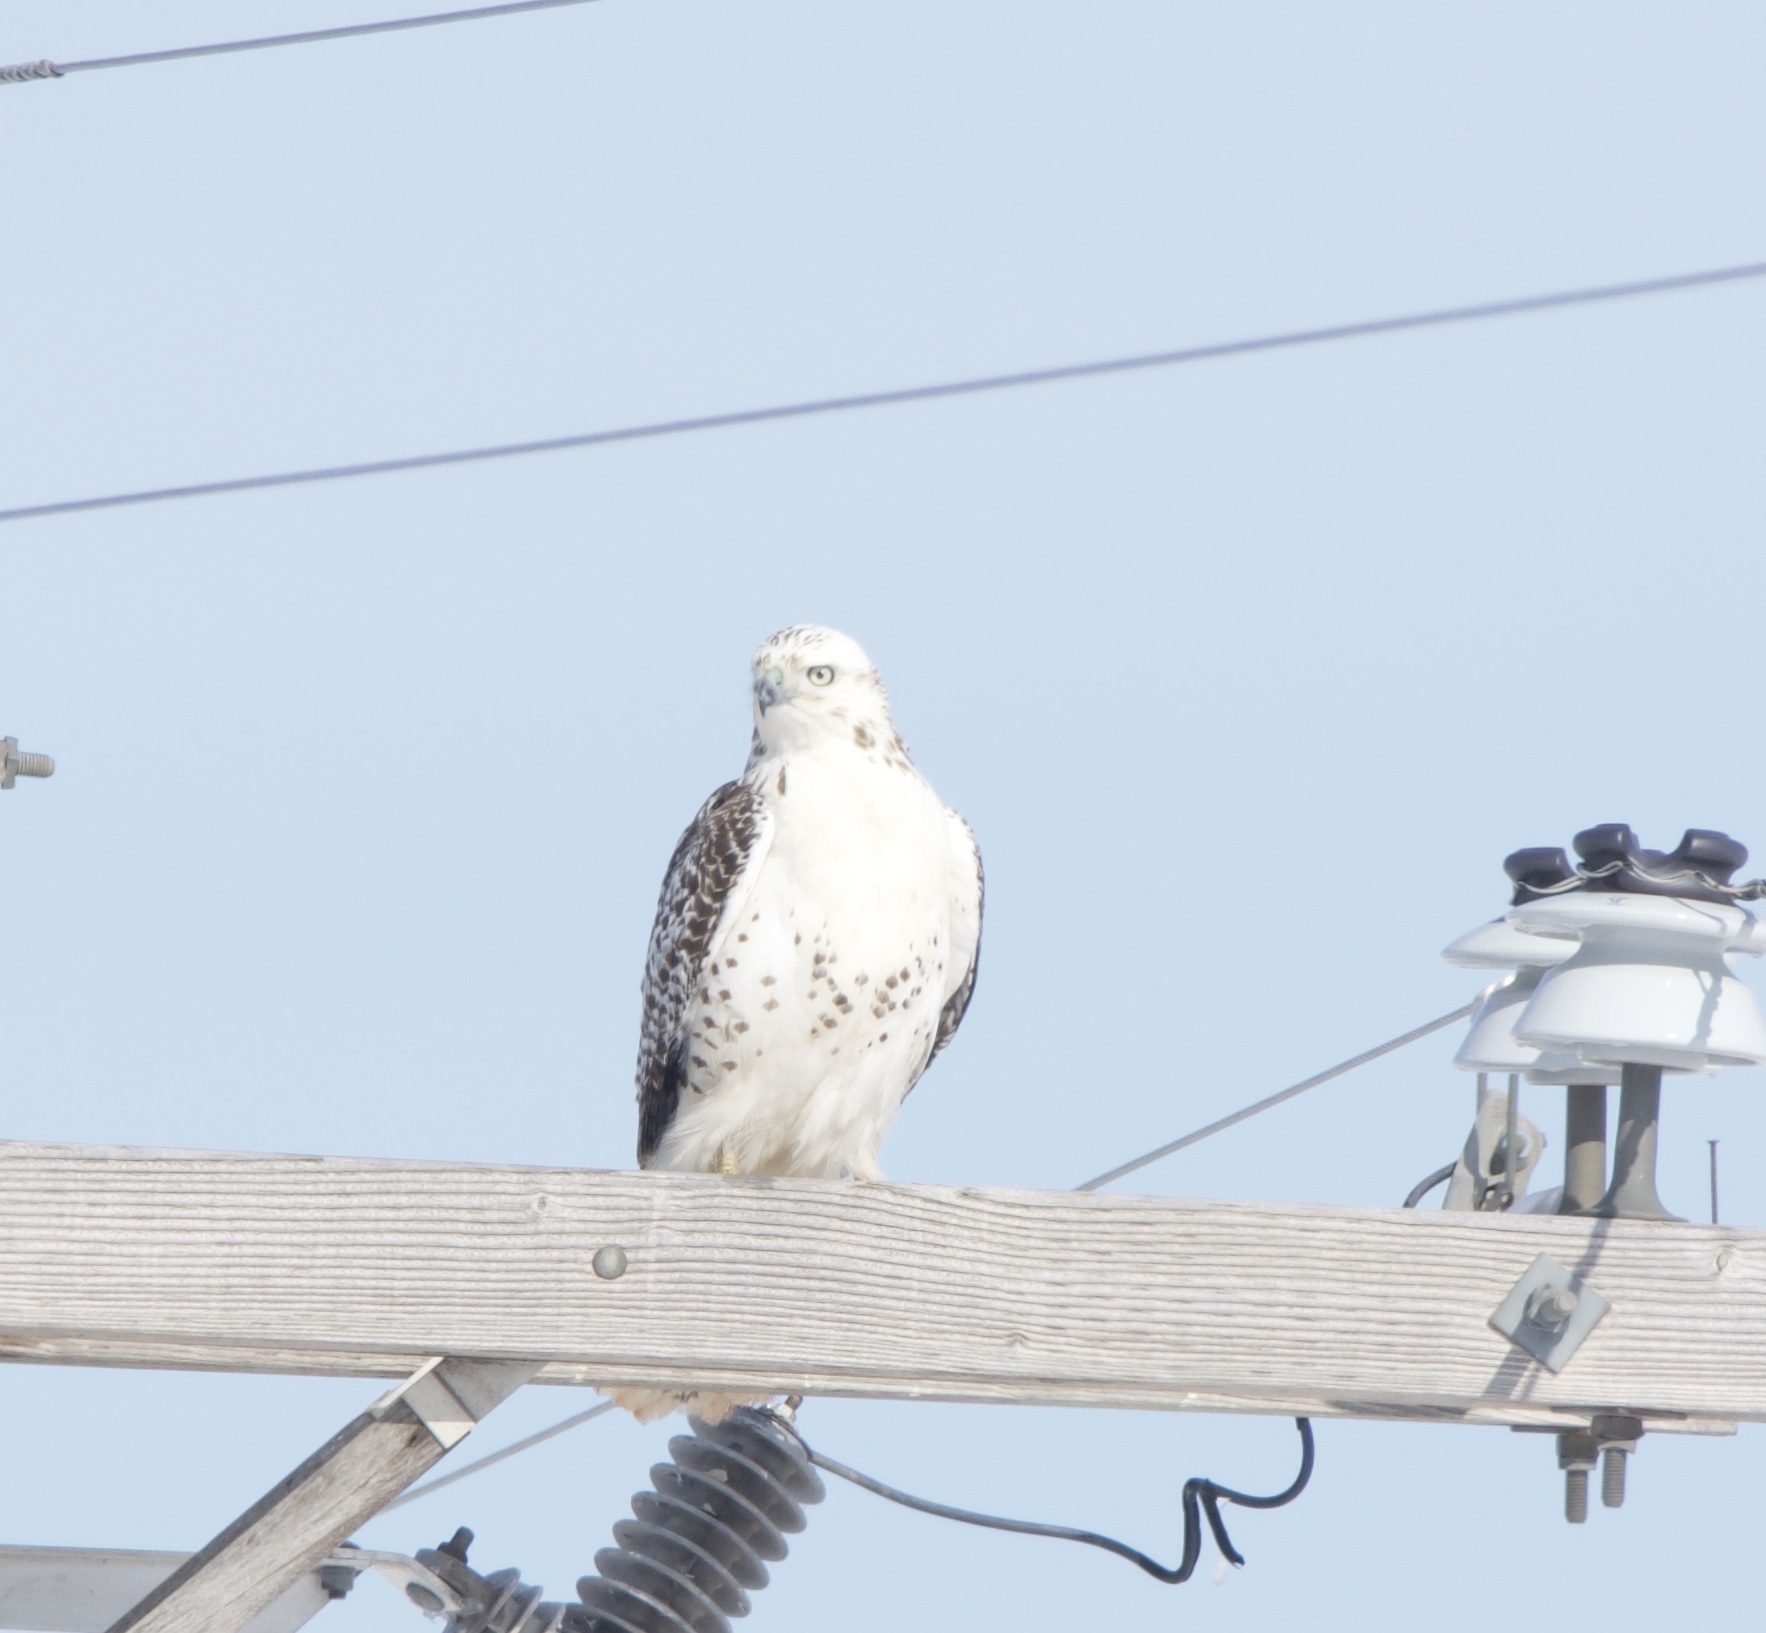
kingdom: Animalia
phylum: Chordata
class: Aves
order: Accipitriformes
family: Accipitridae
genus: Buteo
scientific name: Buteo jamaicensis
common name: Red-tailed hawk
